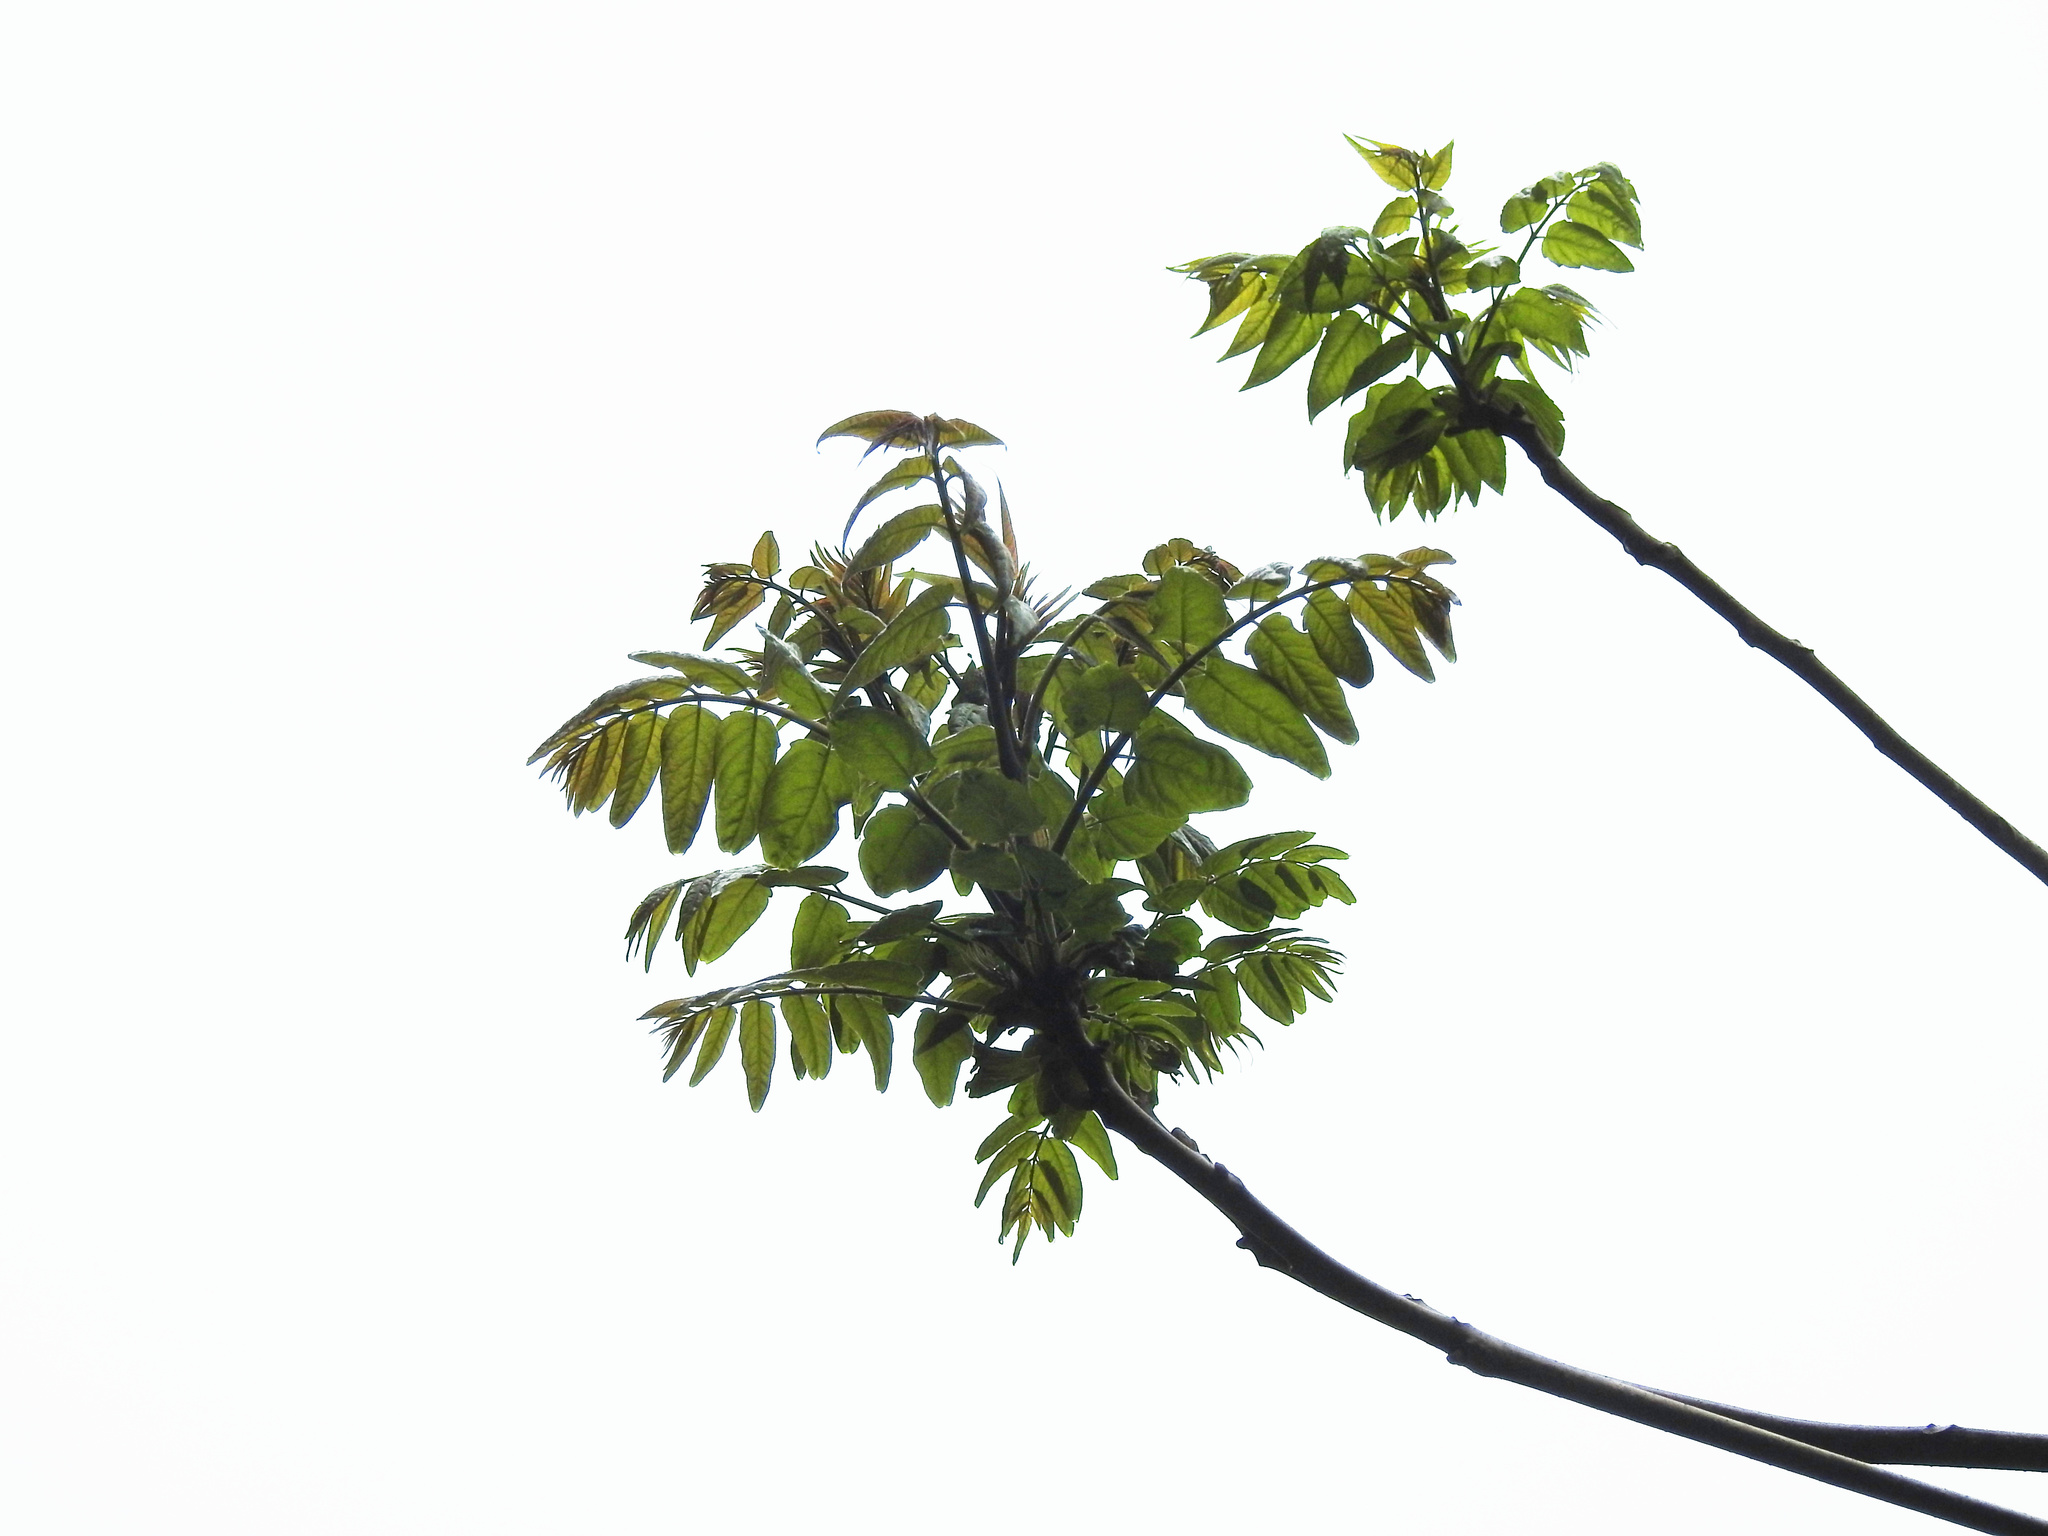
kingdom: Plantae
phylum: Tracheophyta
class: Magnoliopsida
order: Sapindales
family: Simaroubaceae
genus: Ailanthus
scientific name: Ailanthus altissima
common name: Tree-of-heaven
